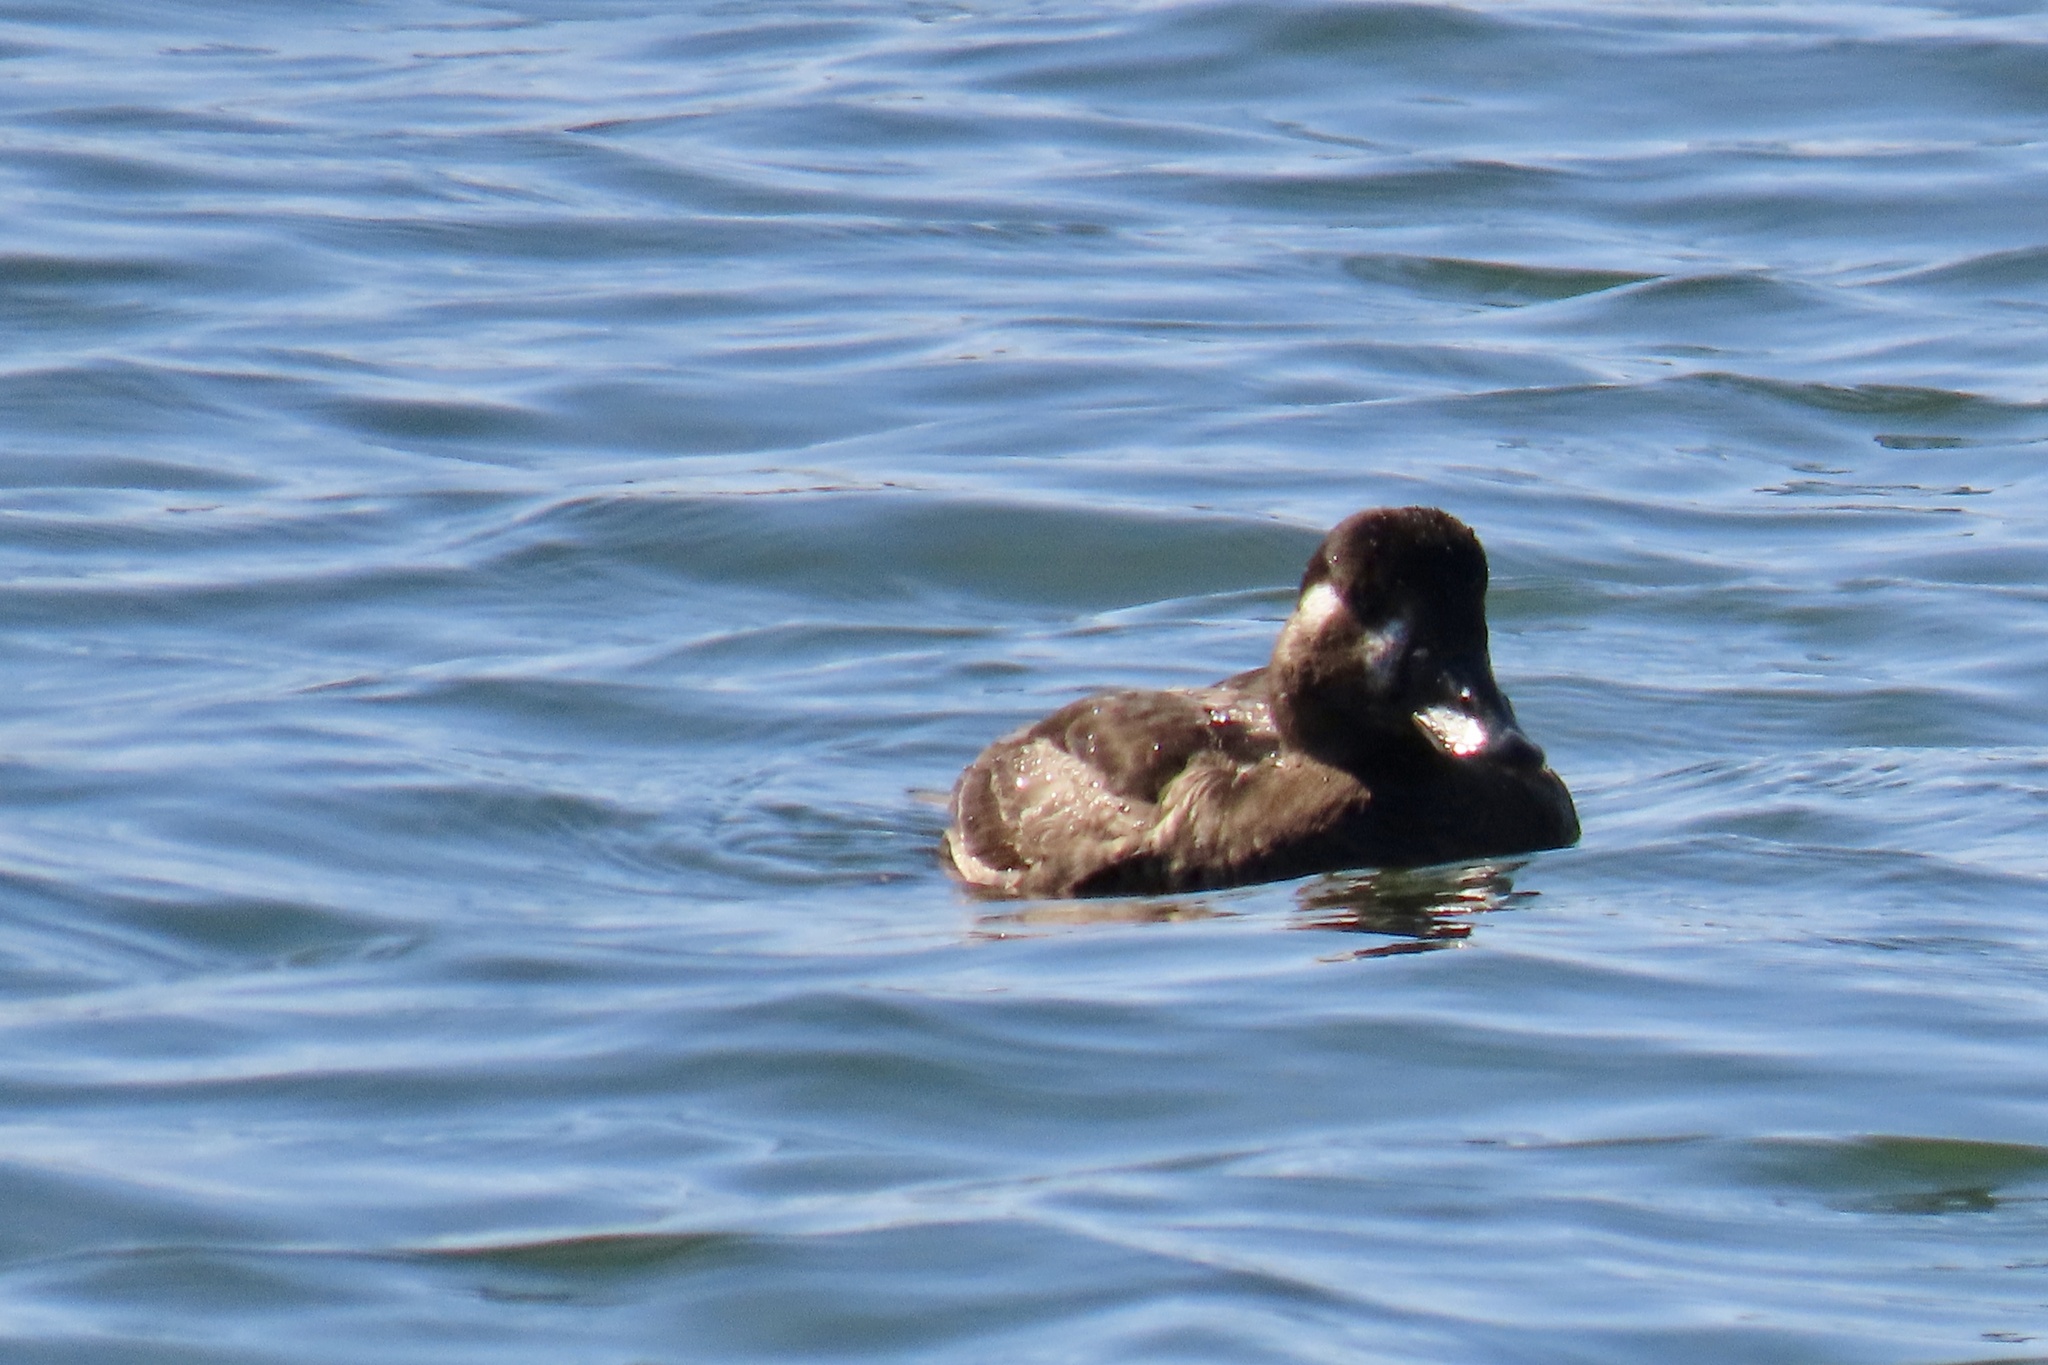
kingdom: Animalia
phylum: Chordata
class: Aves
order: Anseriformes
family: Anatidae
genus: Melanitta
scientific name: Melanitta perspicillata
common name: Surf scoter
